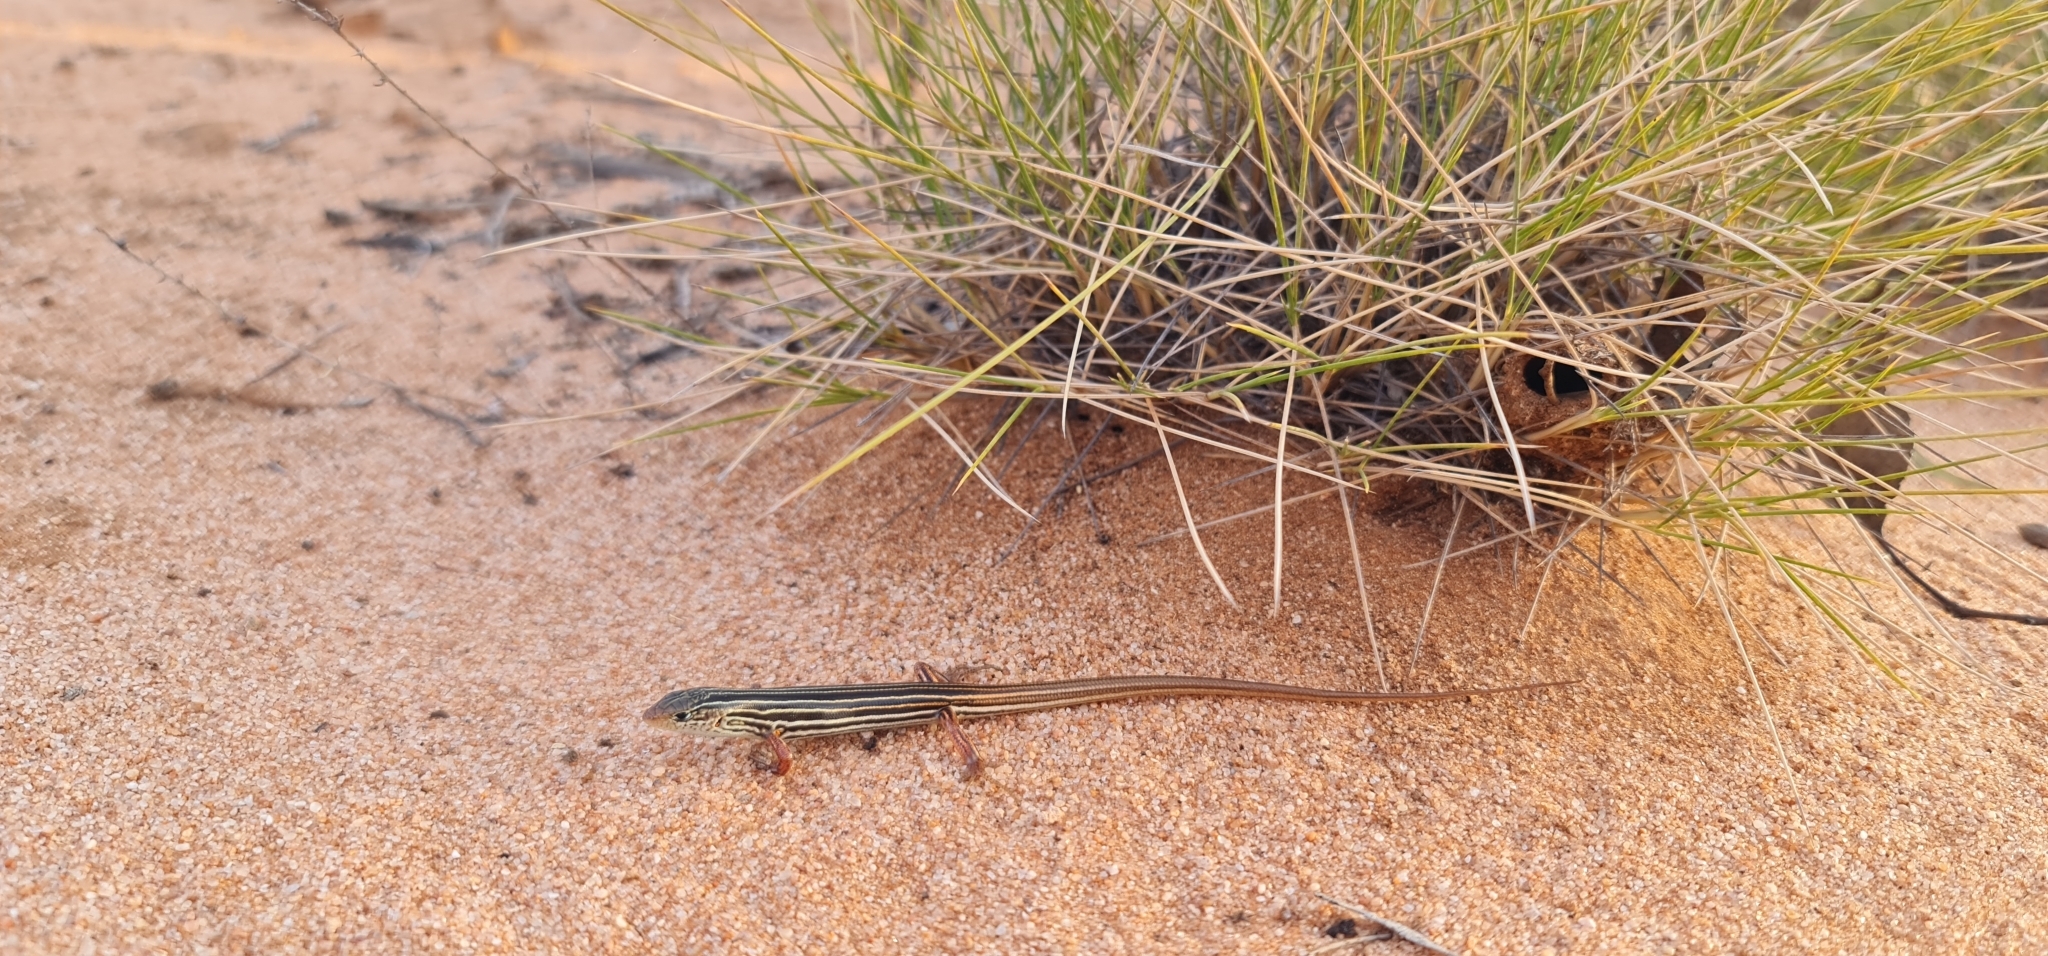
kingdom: Animalia
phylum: Chordata
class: Squamata
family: Scincidae
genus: Ctenotus
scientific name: Ctenotus atlas
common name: Southern mallee ctenotus
